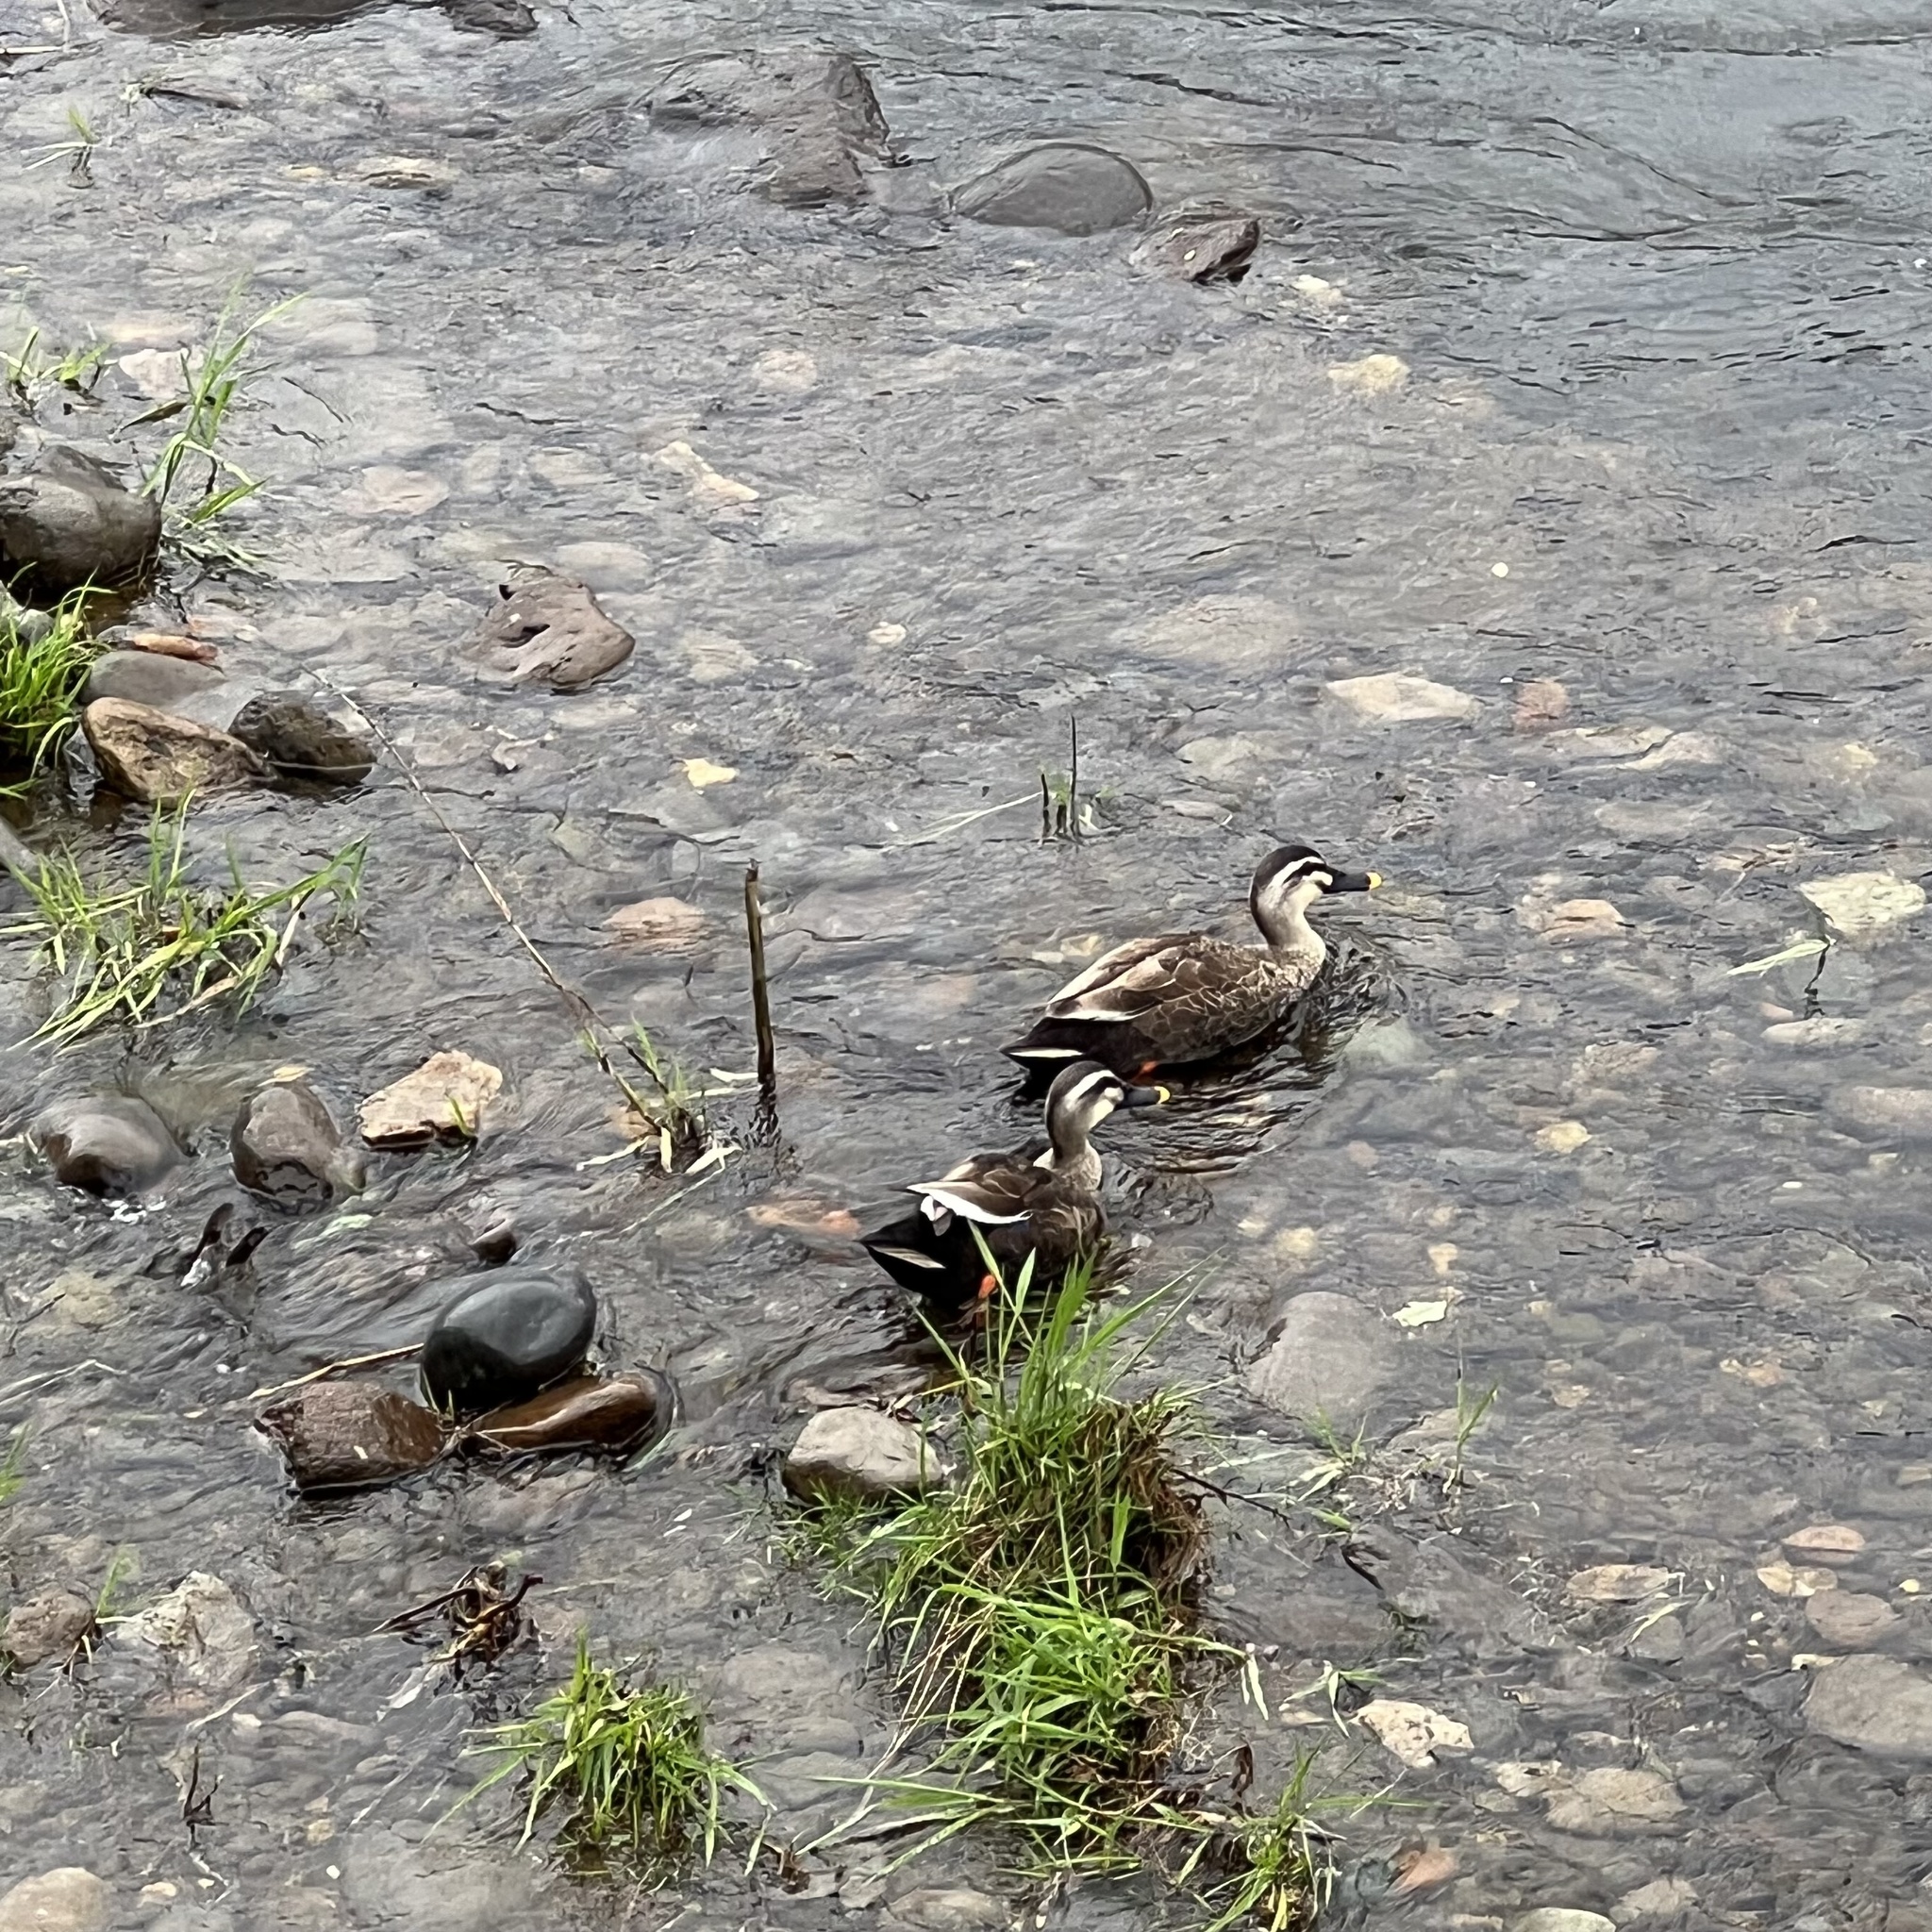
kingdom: Animalia
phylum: Chordata
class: Aves
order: Anseriformes
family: Anatidae
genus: Anas
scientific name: Anas zonorhyncha
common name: Eastern spot-billed duck
